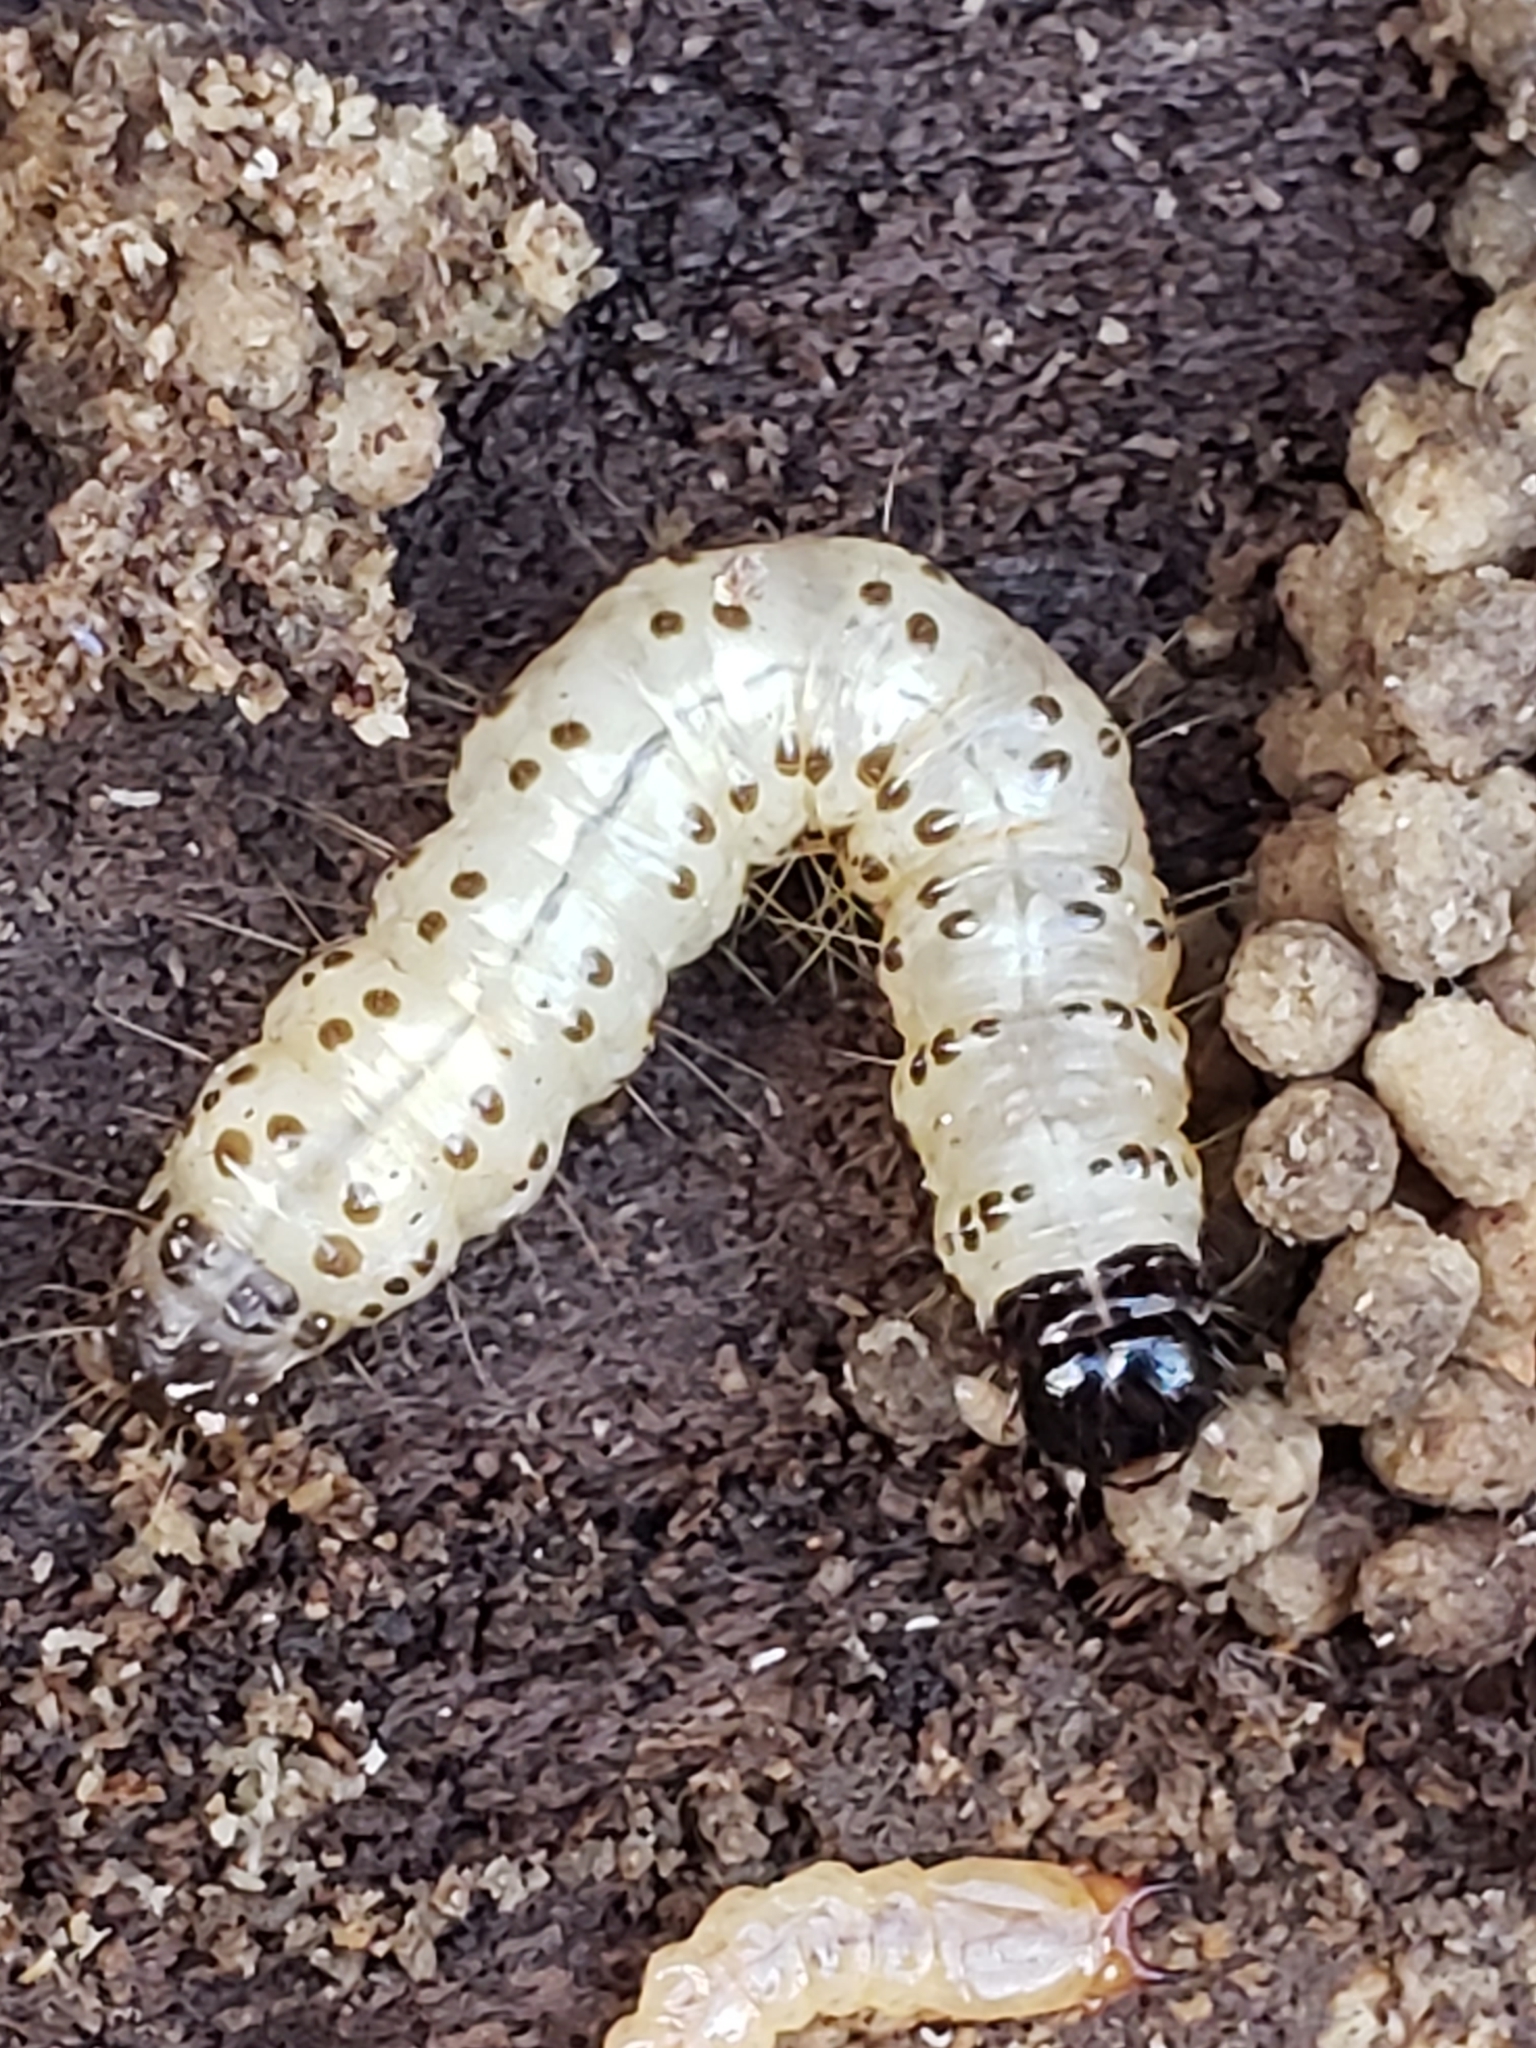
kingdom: Animalia
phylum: Arthropoda
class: Insecta
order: Lepidoptera
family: Erebidae
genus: Scolecocampa
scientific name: Scolecocampa liburna
